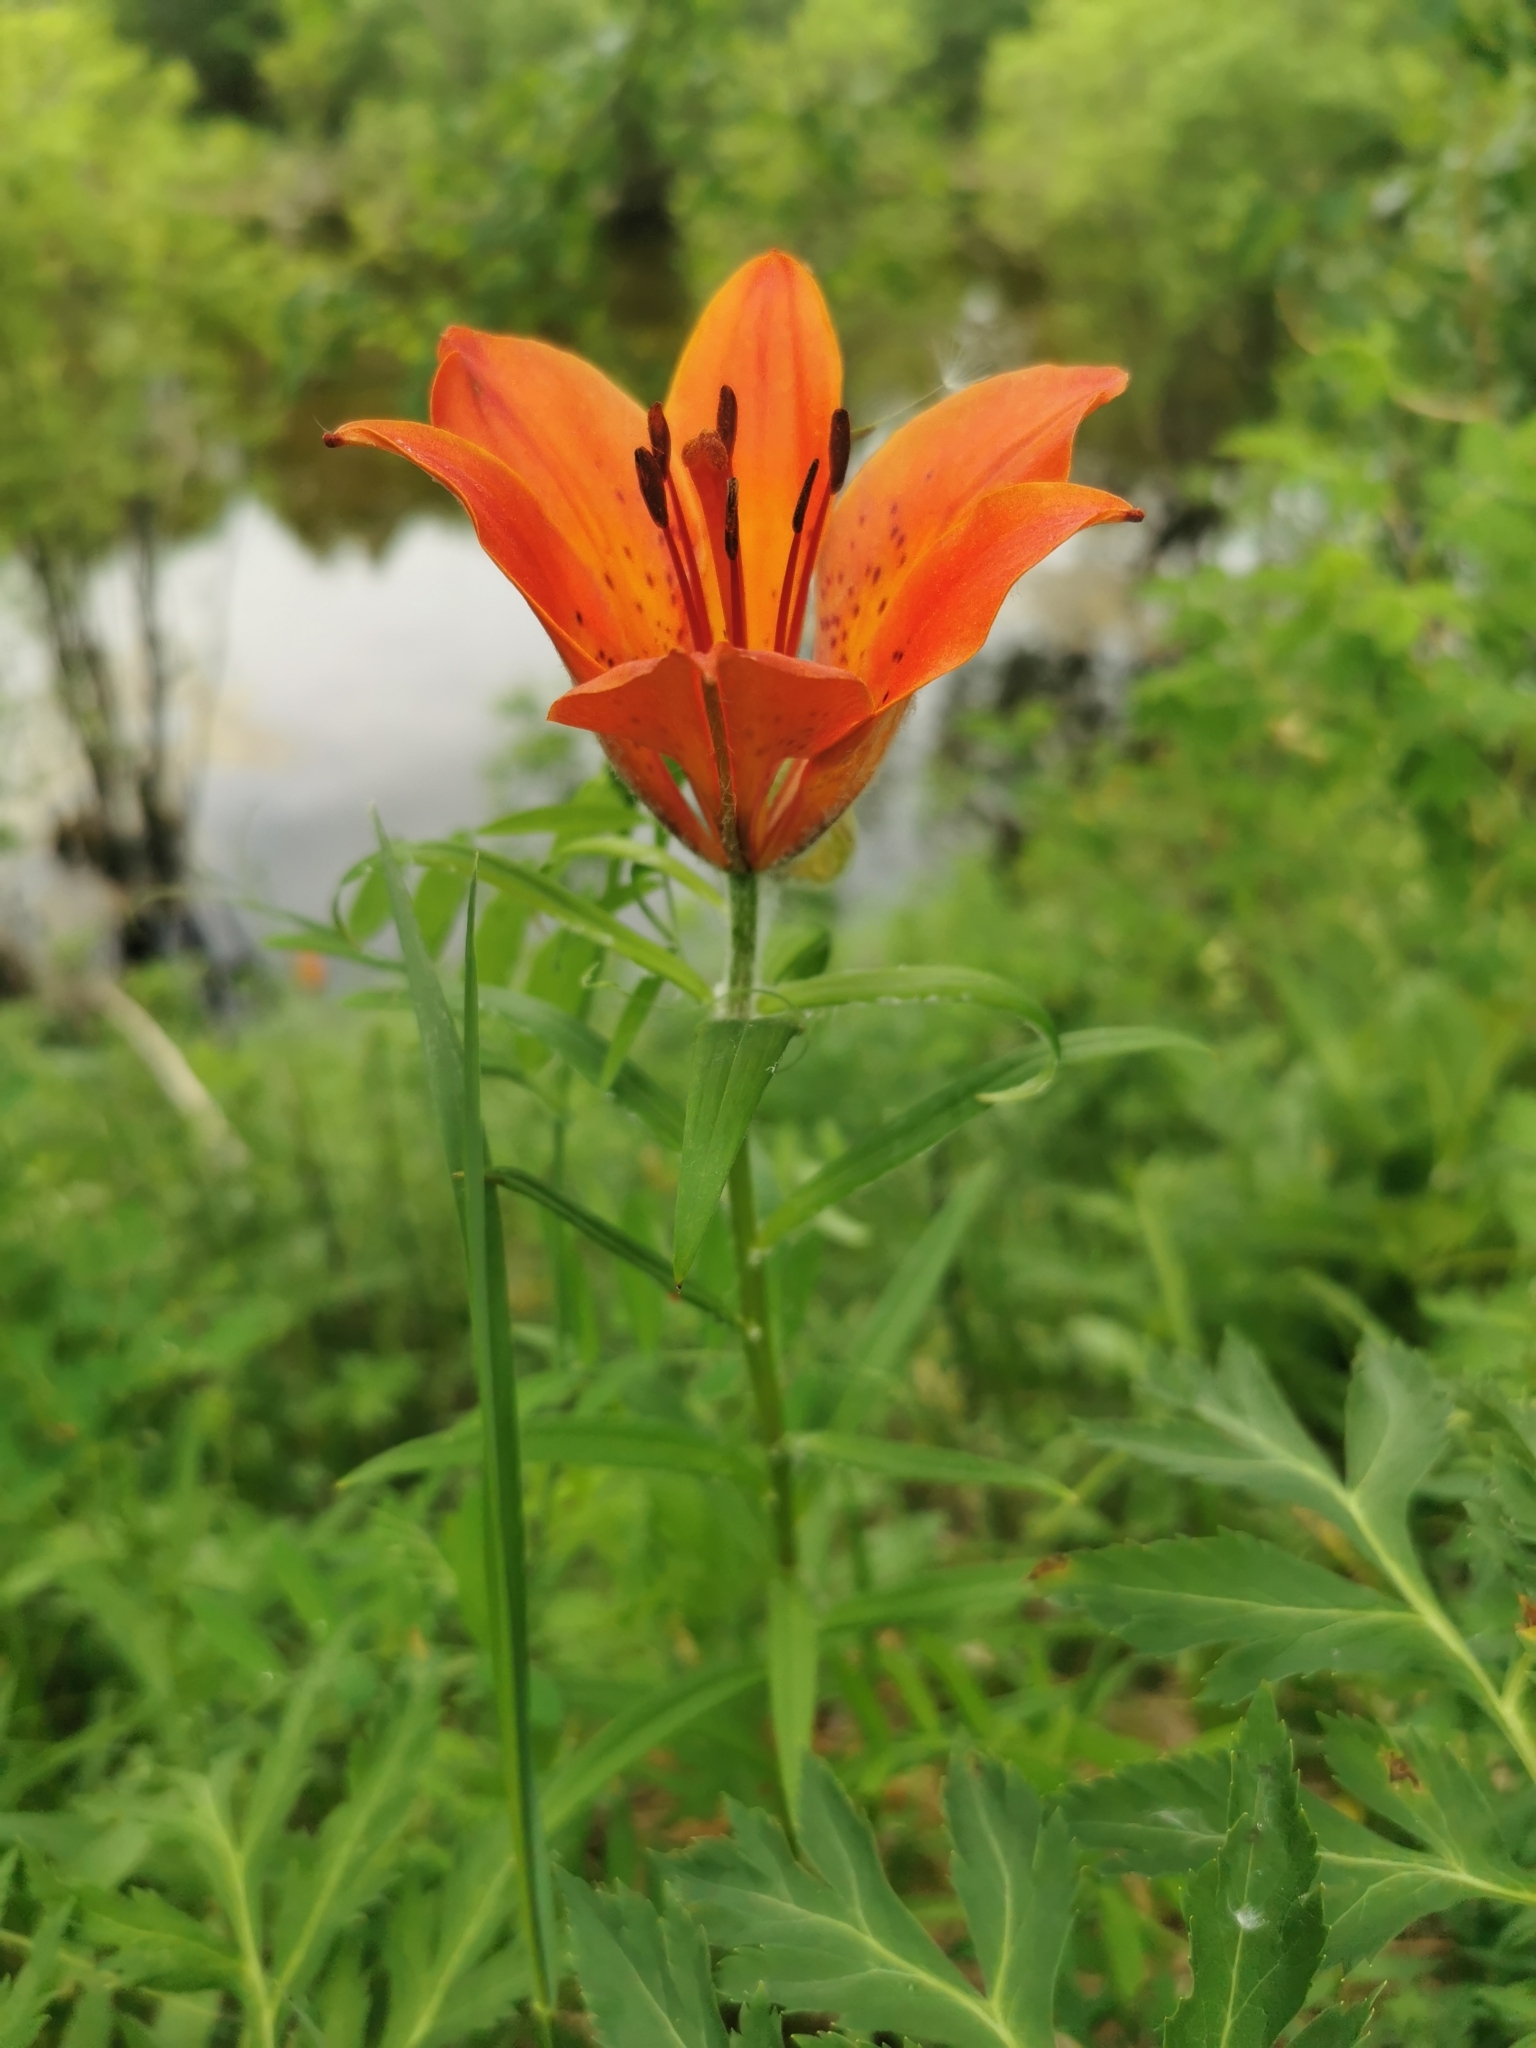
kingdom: Plantae
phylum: Tracheophyta
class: Liliopsida
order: Liliales
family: Liliaceae
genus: Lilium
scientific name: Lilium pensylvanicum
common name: Candlestick lily
